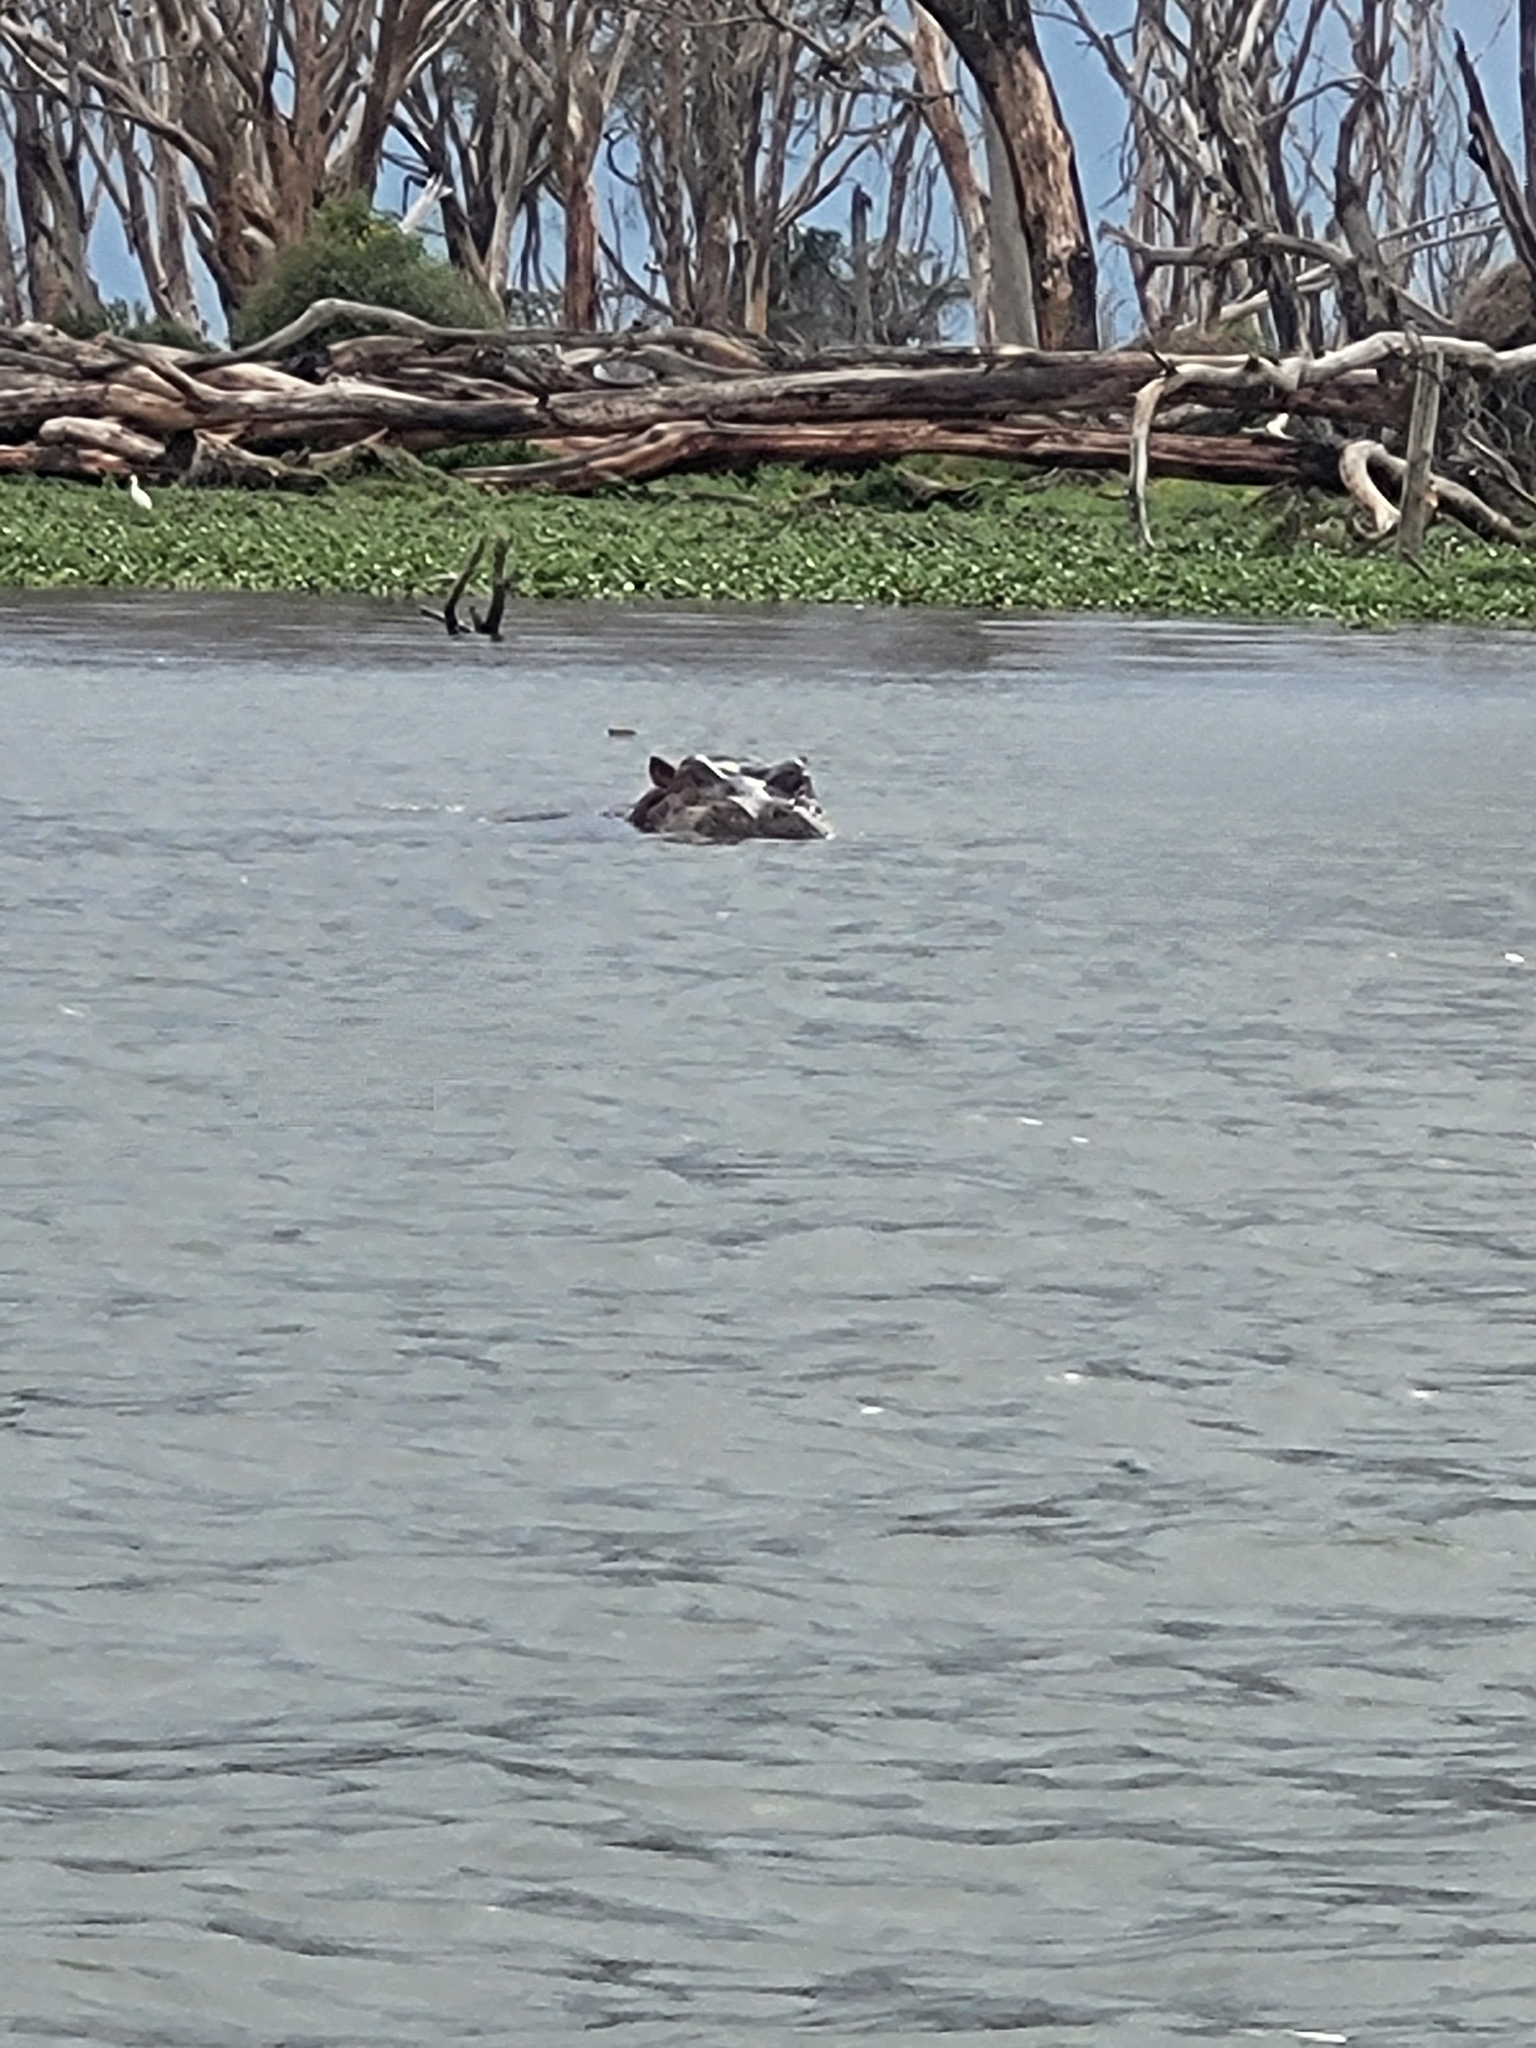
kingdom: Animalia
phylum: Chordata
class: Mammalia
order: Artiodactyla
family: Hippopotamidae
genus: Hippopotamus
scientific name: Hippopotamus amphibius
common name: Common hippopotamus
